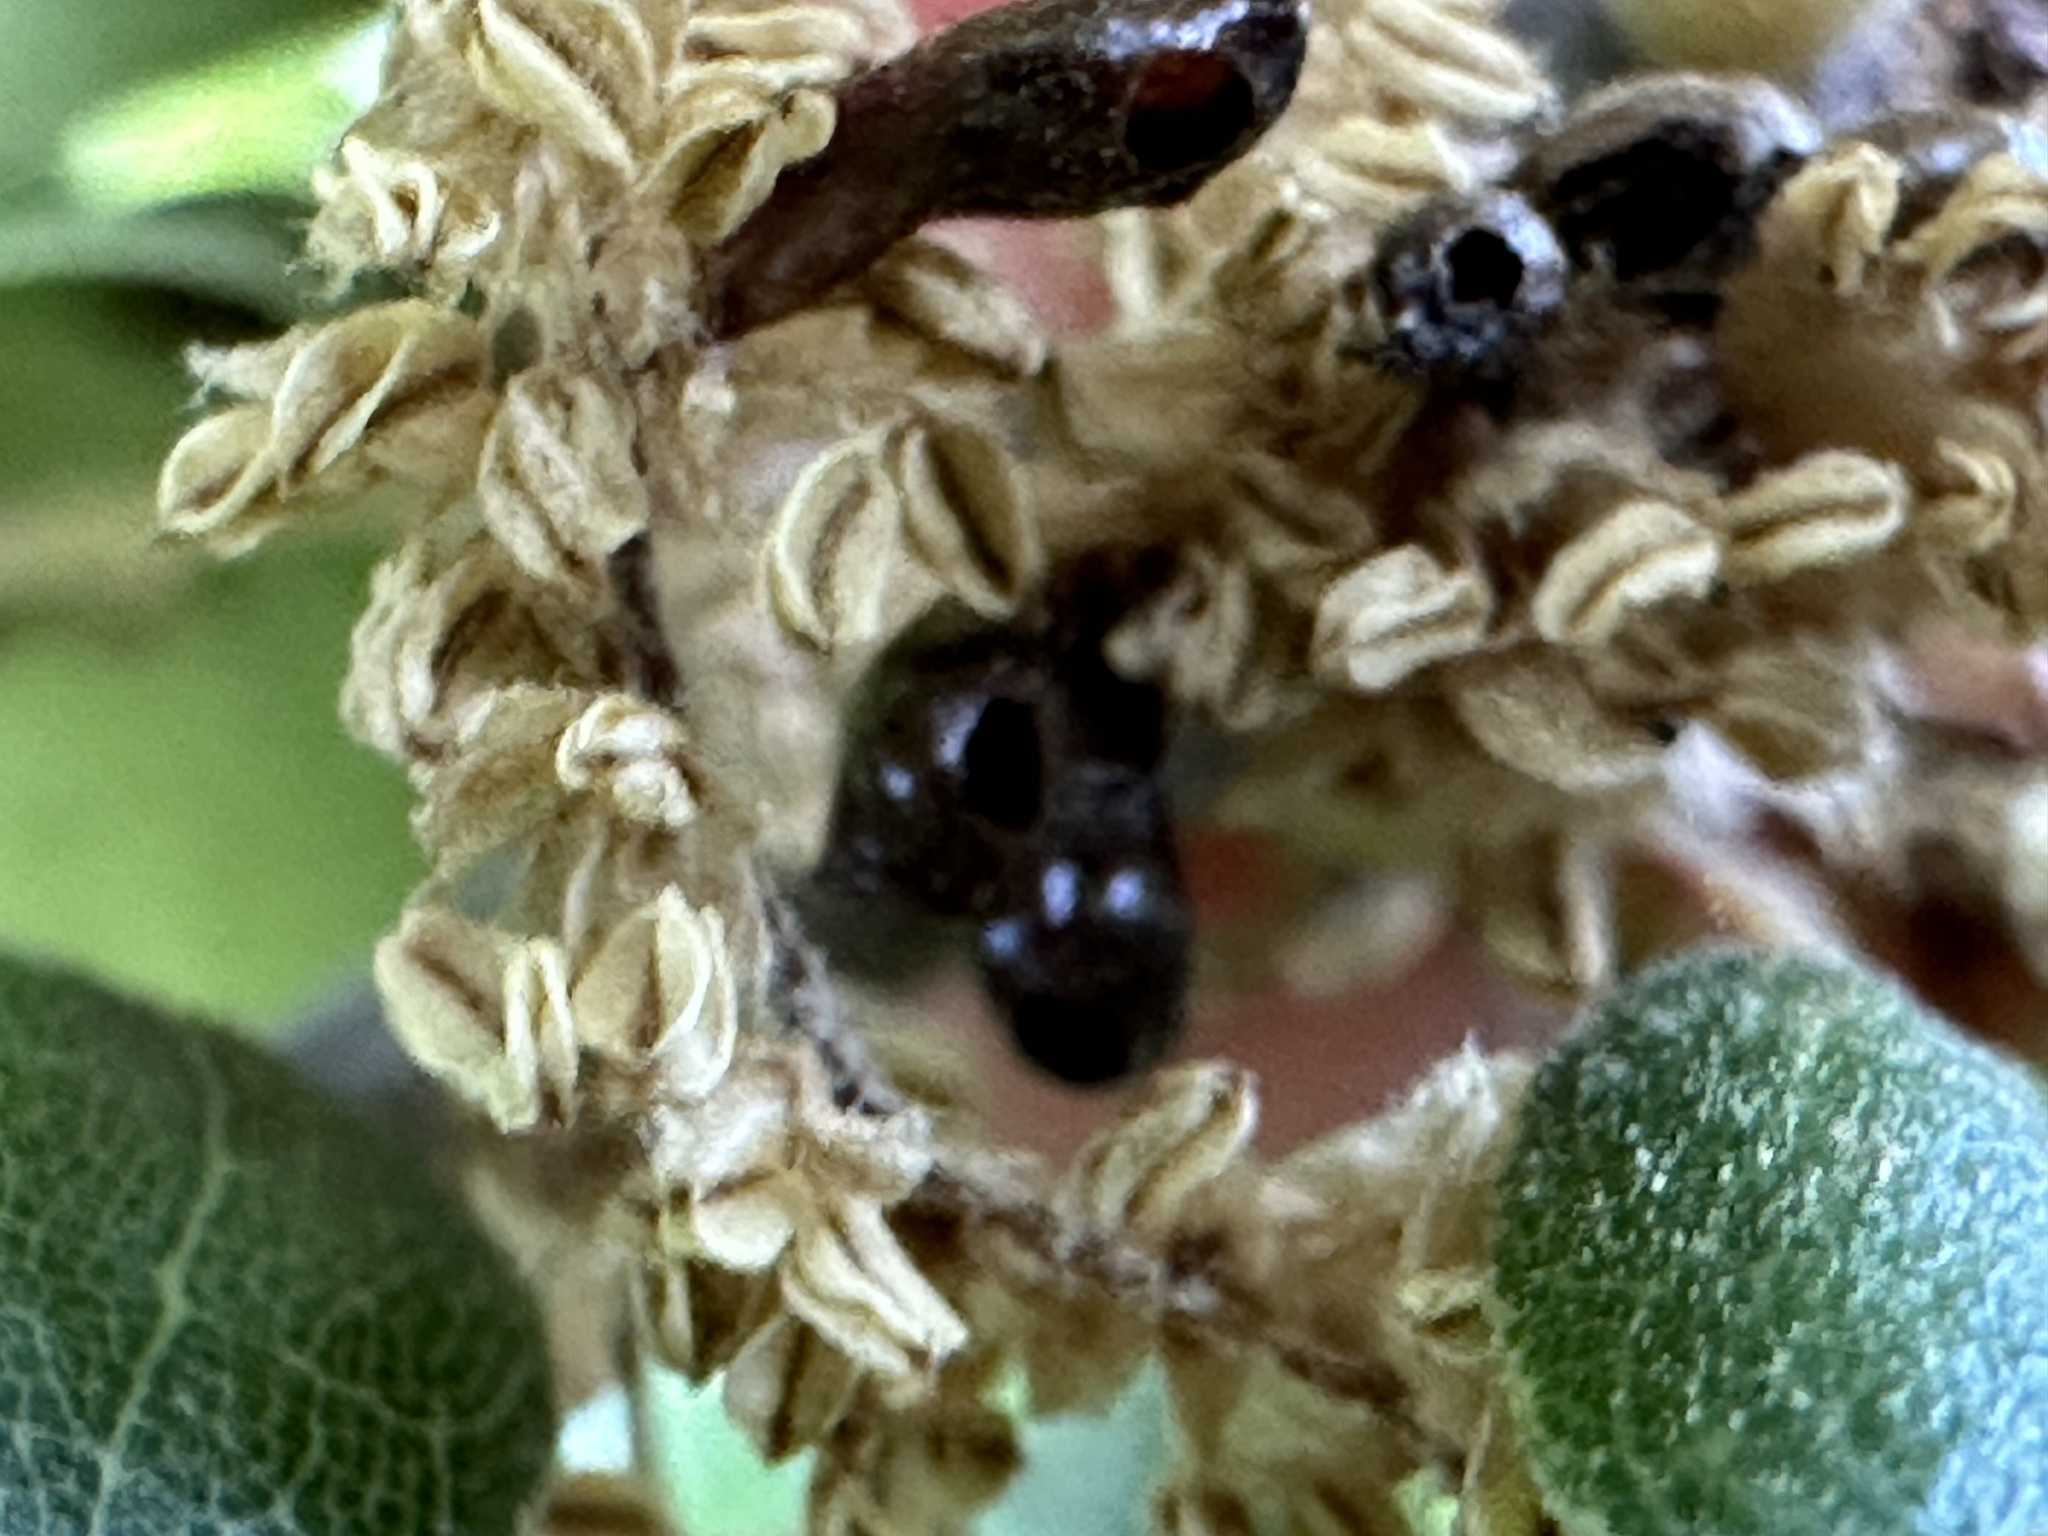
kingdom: Animalia
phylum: Arthropoda
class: Insecta
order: Hymenoptera
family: Cynipidae
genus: Dryocosmus
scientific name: Dryocosmus
